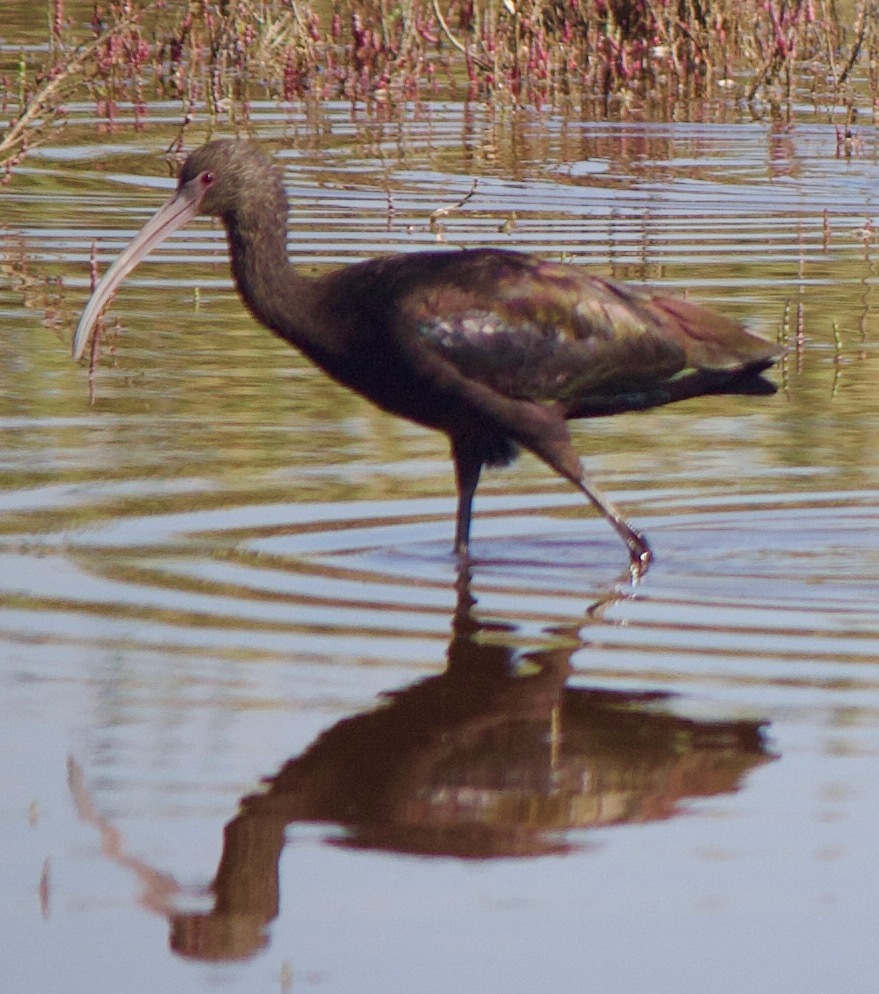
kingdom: Animalia
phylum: Chordata
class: Aves
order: Pelecaniformes
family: Threskiornithidae
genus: Plegadis
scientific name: Plegadis chihi
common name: White-faced ibis
